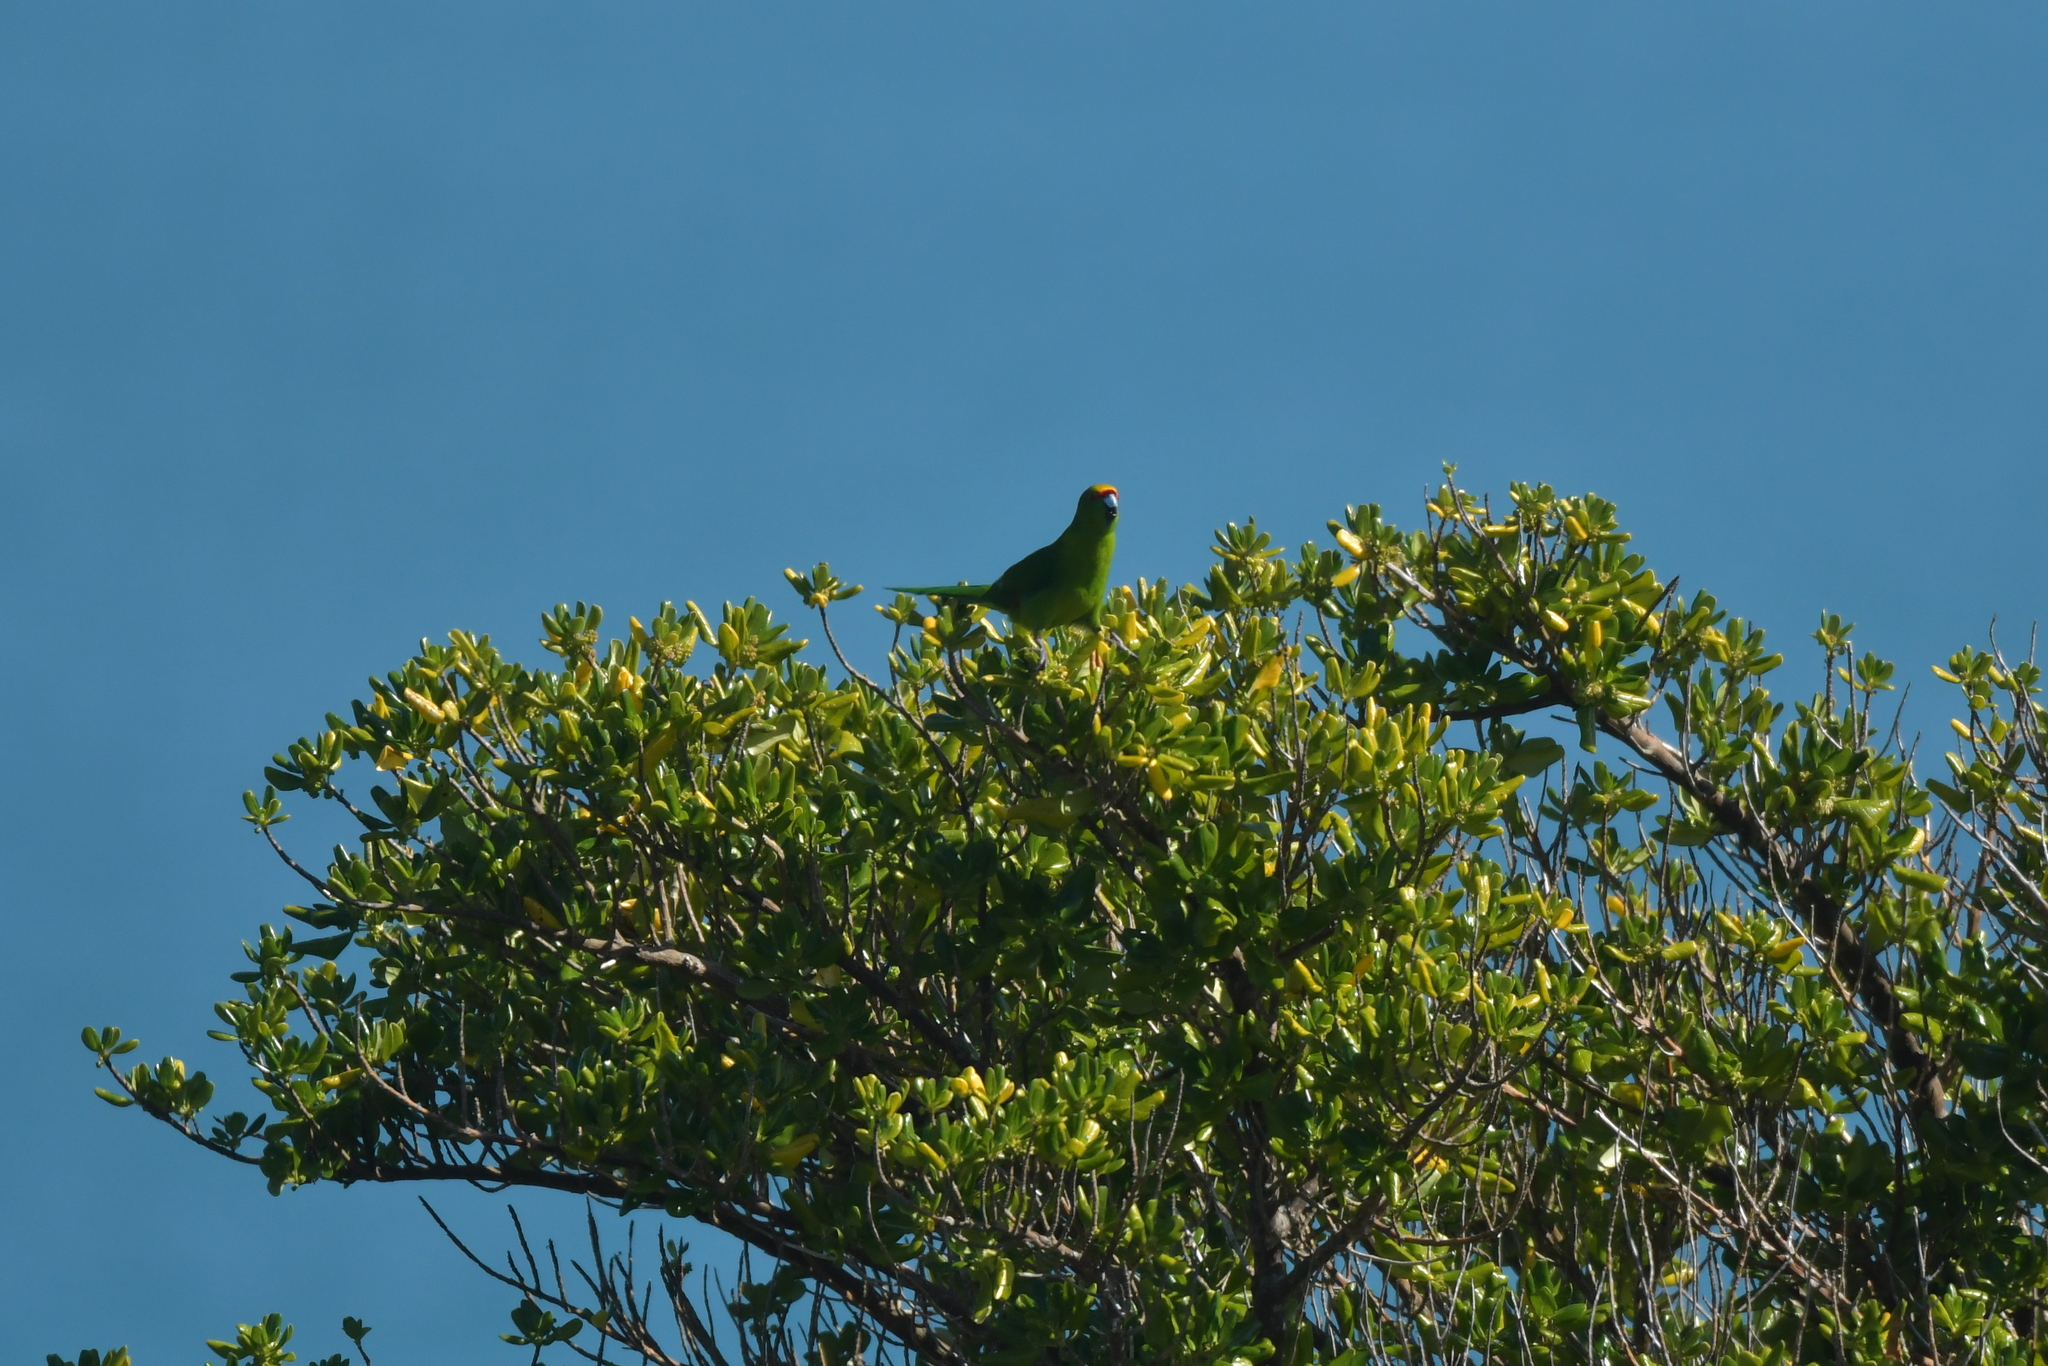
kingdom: Animalia
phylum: Chordata
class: Aves
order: Psittaciformes
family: Psittacidae
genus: Cyanoramphus
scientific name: Cyanoramphus auriceps
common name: Yellow-crowned parakeet
